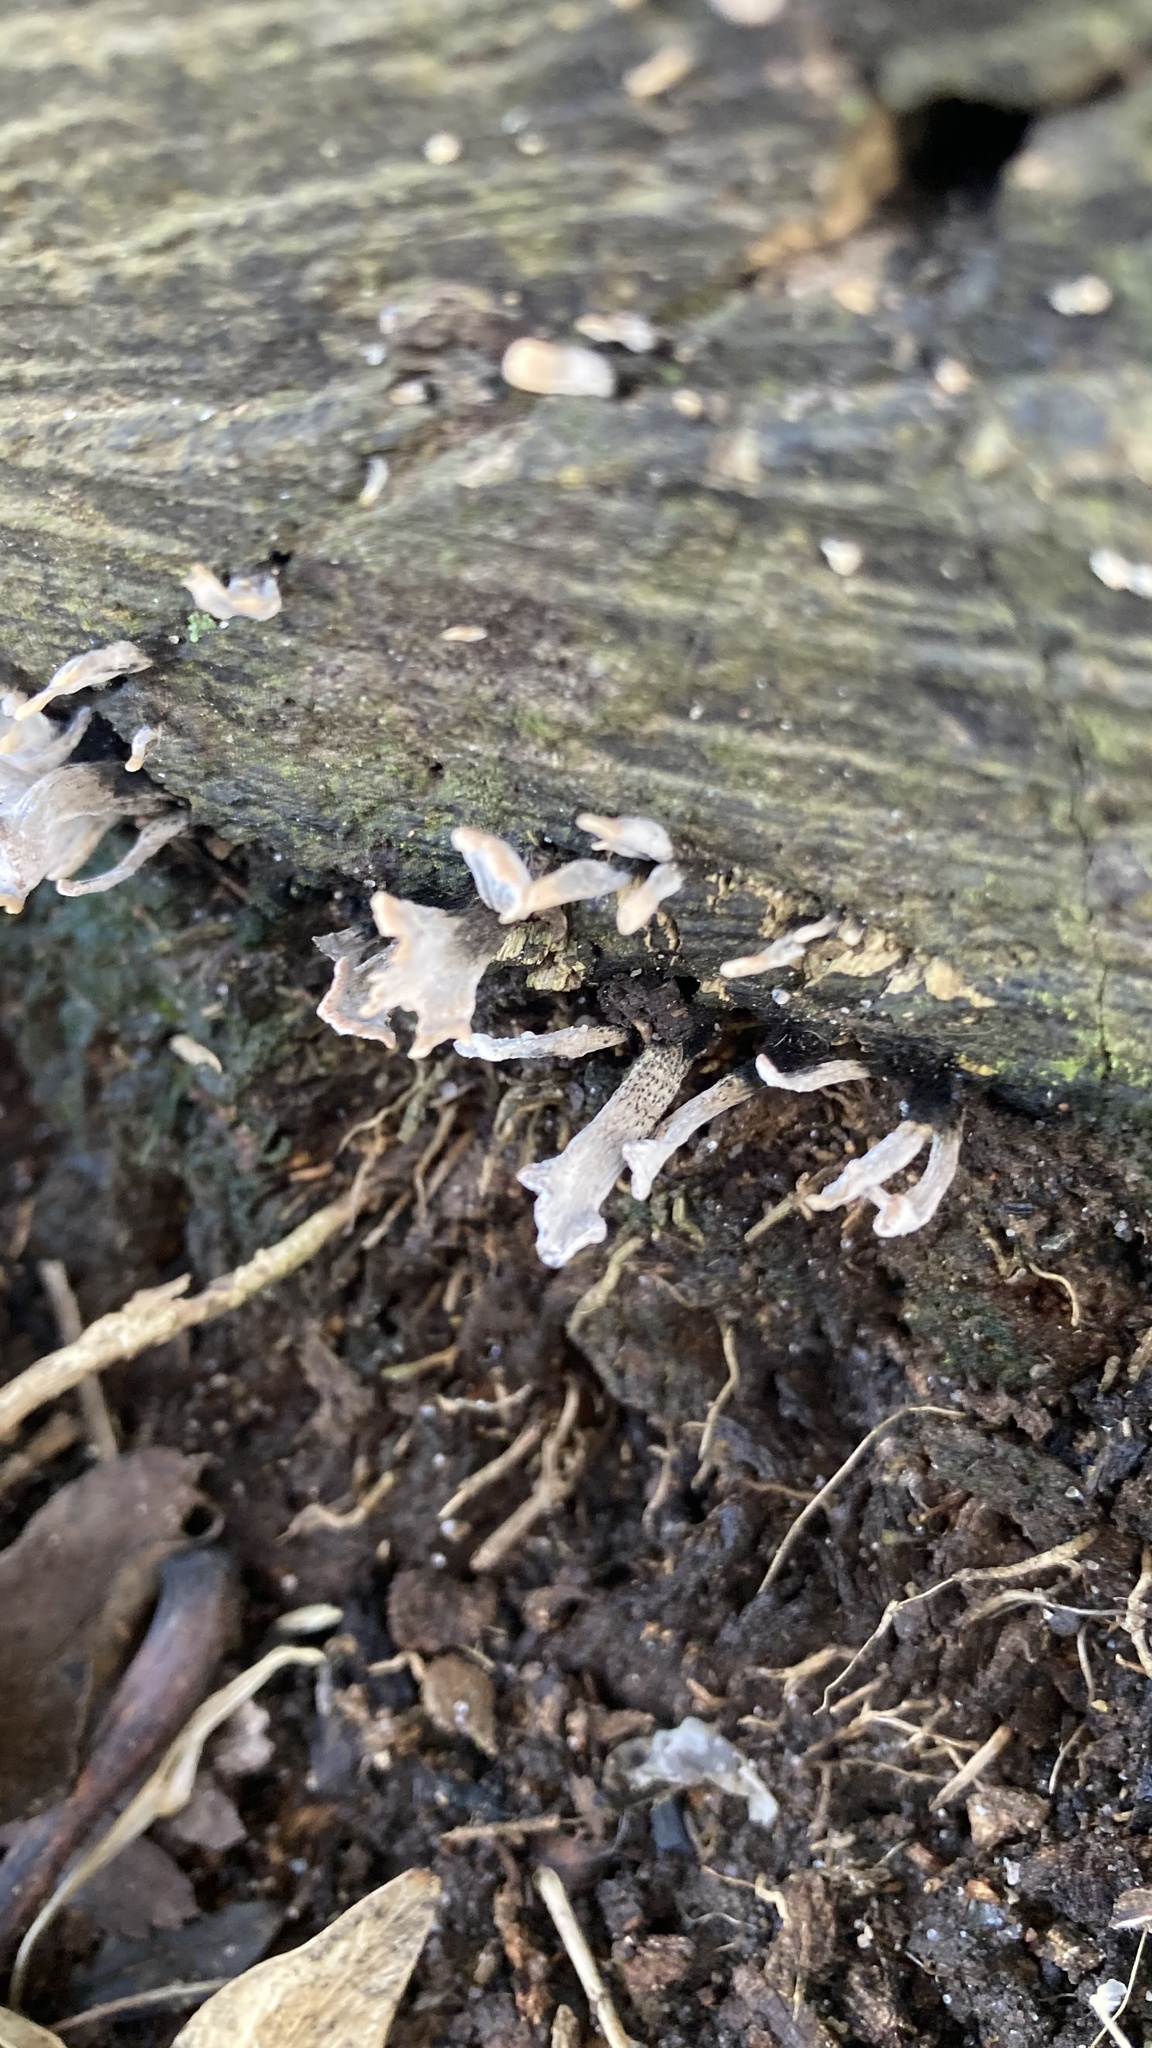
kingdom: Fungi
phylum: Ascomycota
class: Sordariomycetes
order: Xylariales
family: Xylariaceae
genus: Xylaria
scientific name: Xylaria hypoxylon
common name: Candle-snuff fungus
